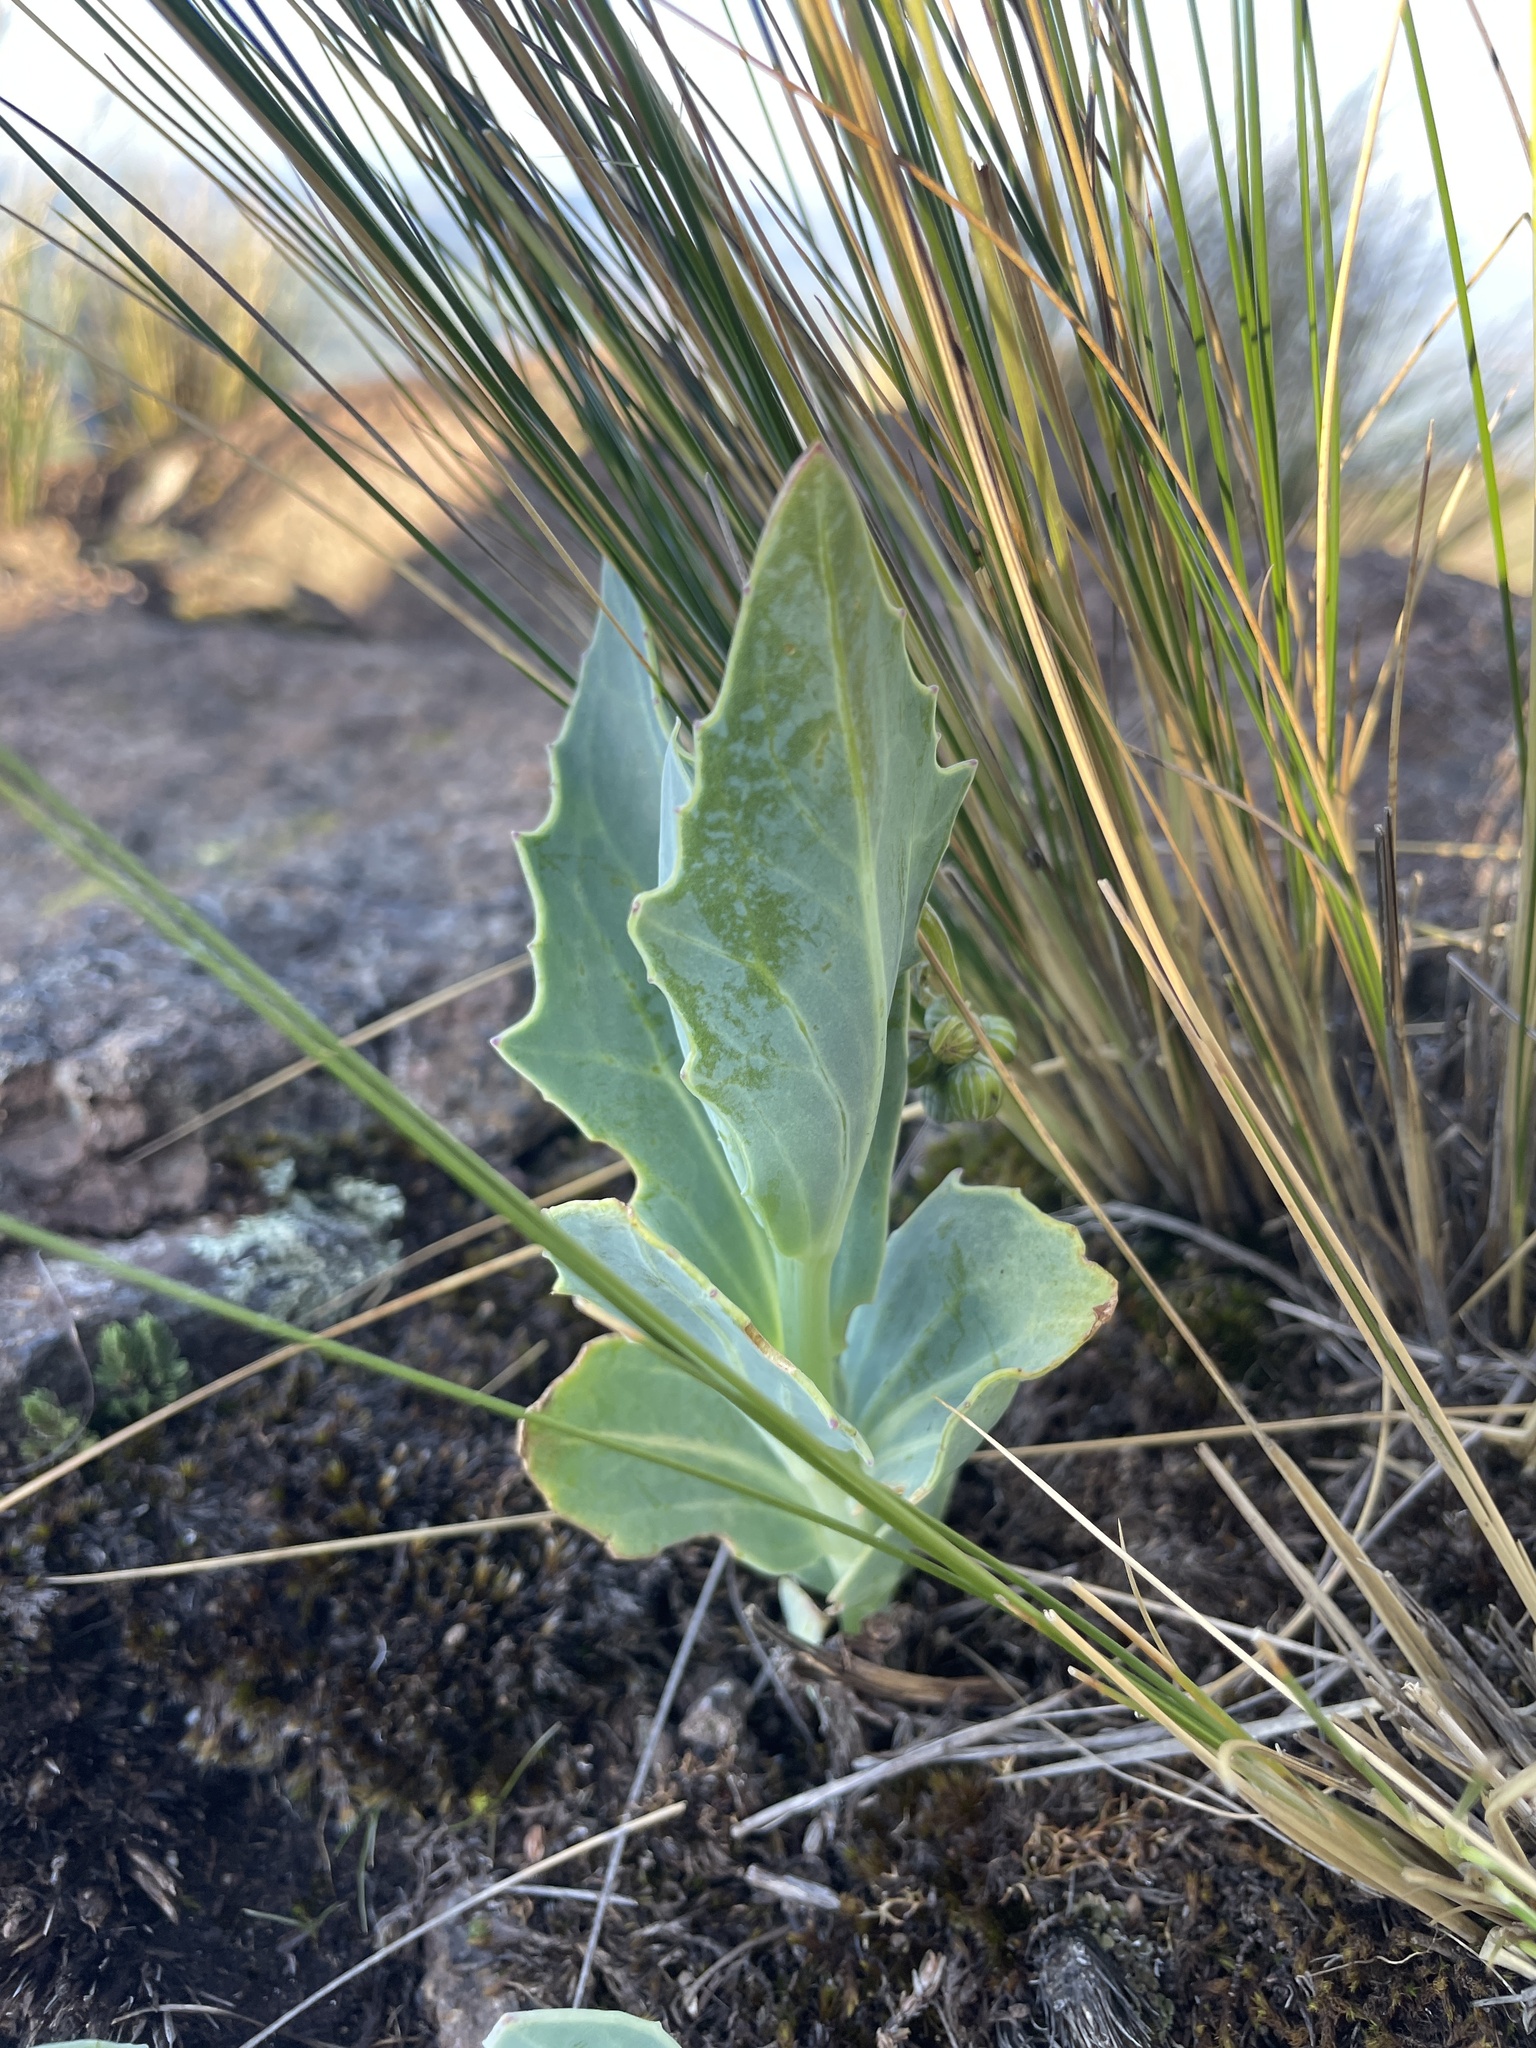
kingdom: Plantae
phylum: Tracheophyta
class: Magnoliopsida
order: Asterales
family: Asteraceae
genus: Senecio
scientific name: Senecio rhomboideus
